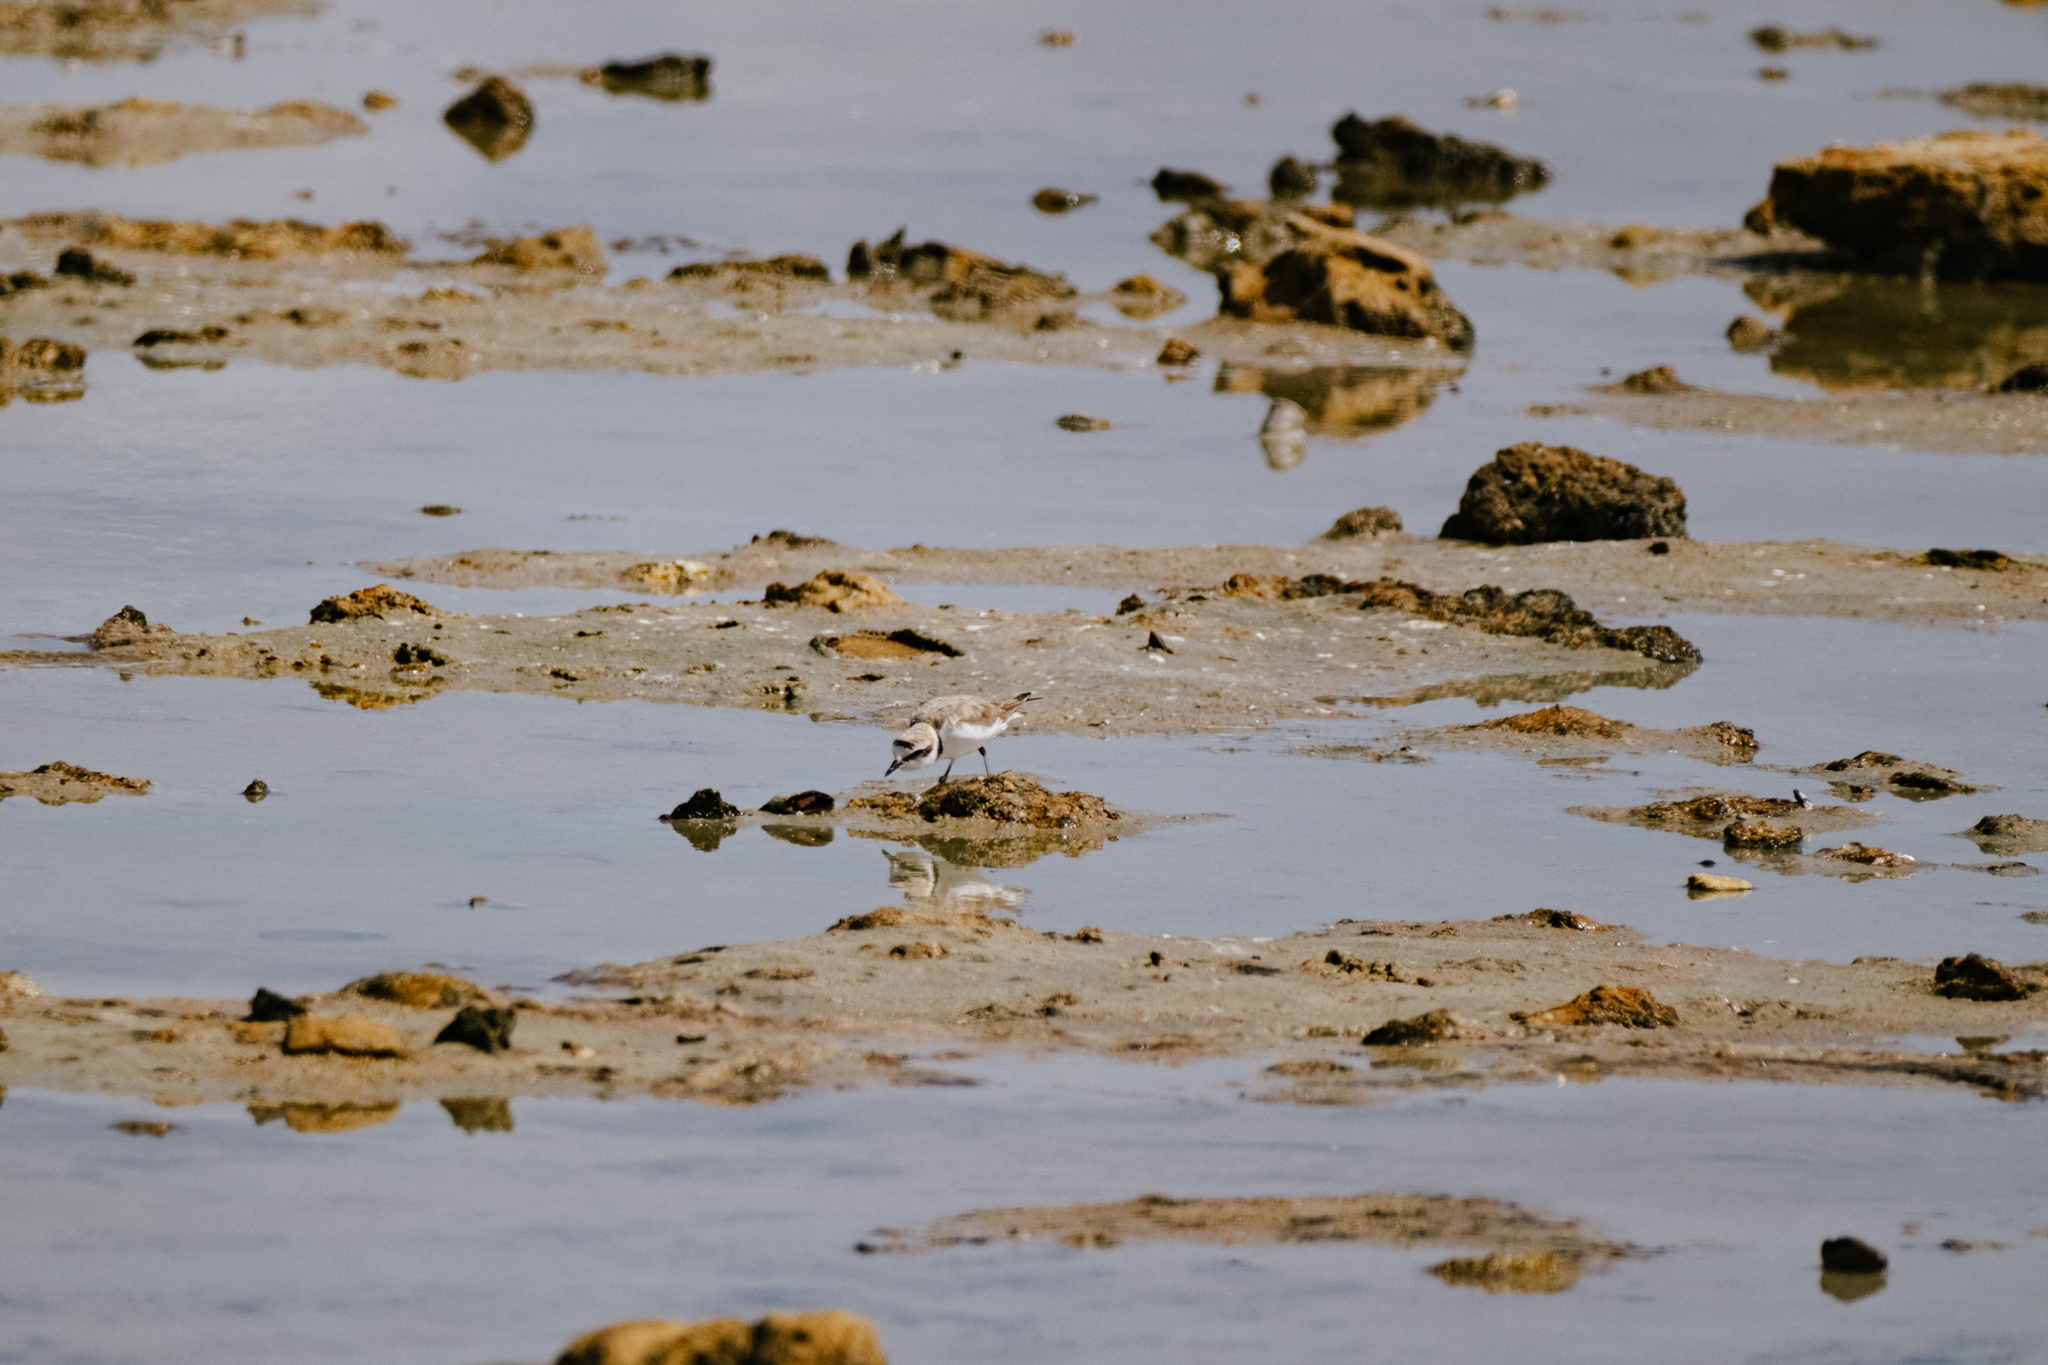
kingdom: Animalia
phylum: Chordata
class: Aves
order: Charadriiformes
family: Charadriidae
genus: Charadrius
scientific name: Charadrius alexandrinus
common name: Kentish plover
